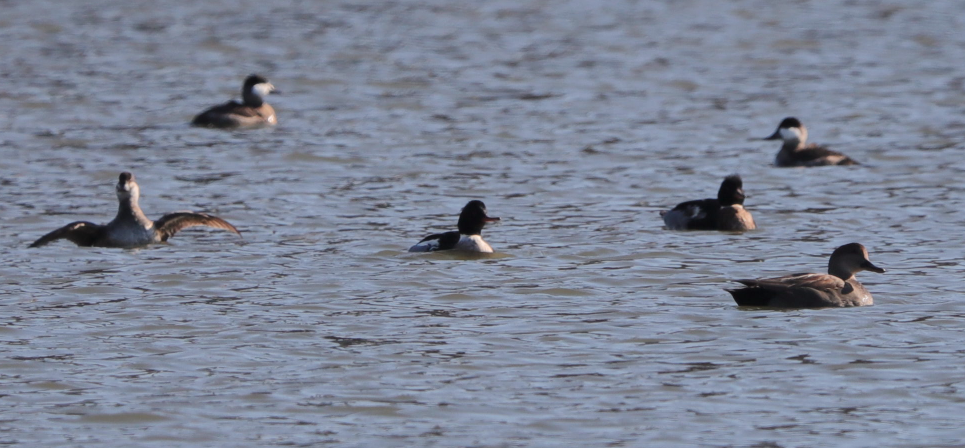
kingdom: Animalia
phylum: Chordata
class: Aves
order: Anseriformes
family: Anatidae
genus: Oxyura
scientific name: Oxyura jamaicensis
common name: Ruddy duck
